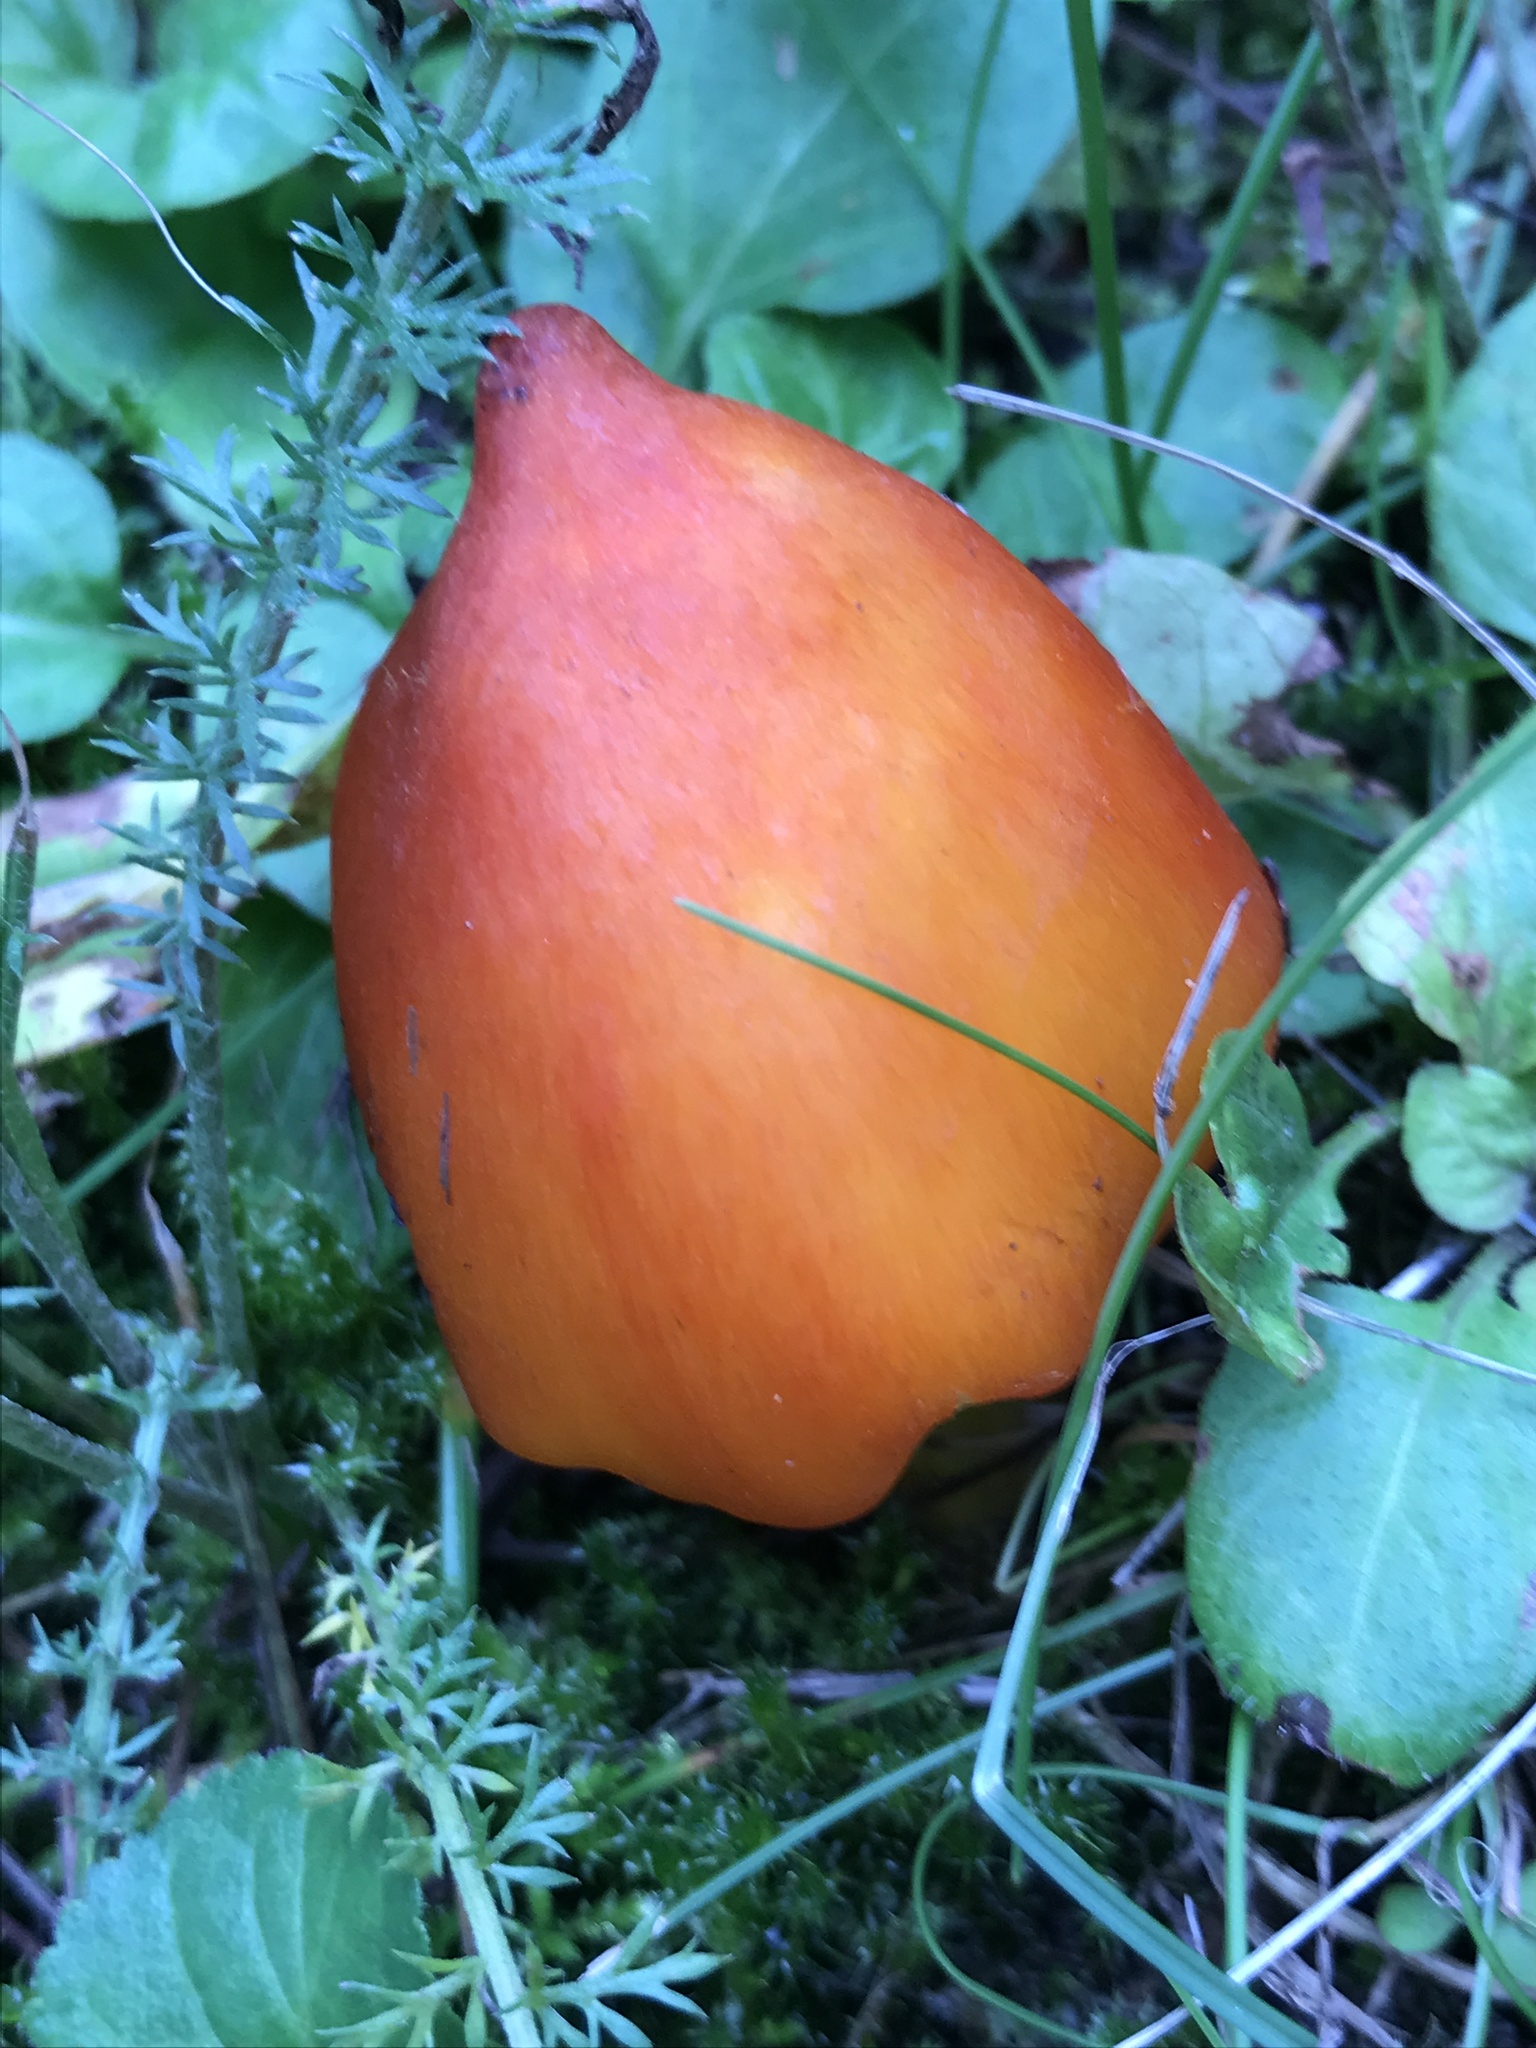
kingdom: Fungi
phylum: Basidiomycota
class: Agaricomycetes
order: Agaricales
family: Hygrophoraceae
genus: Hygrocybe
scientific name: Hygrocybe conica
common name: Blackening wax-cap
